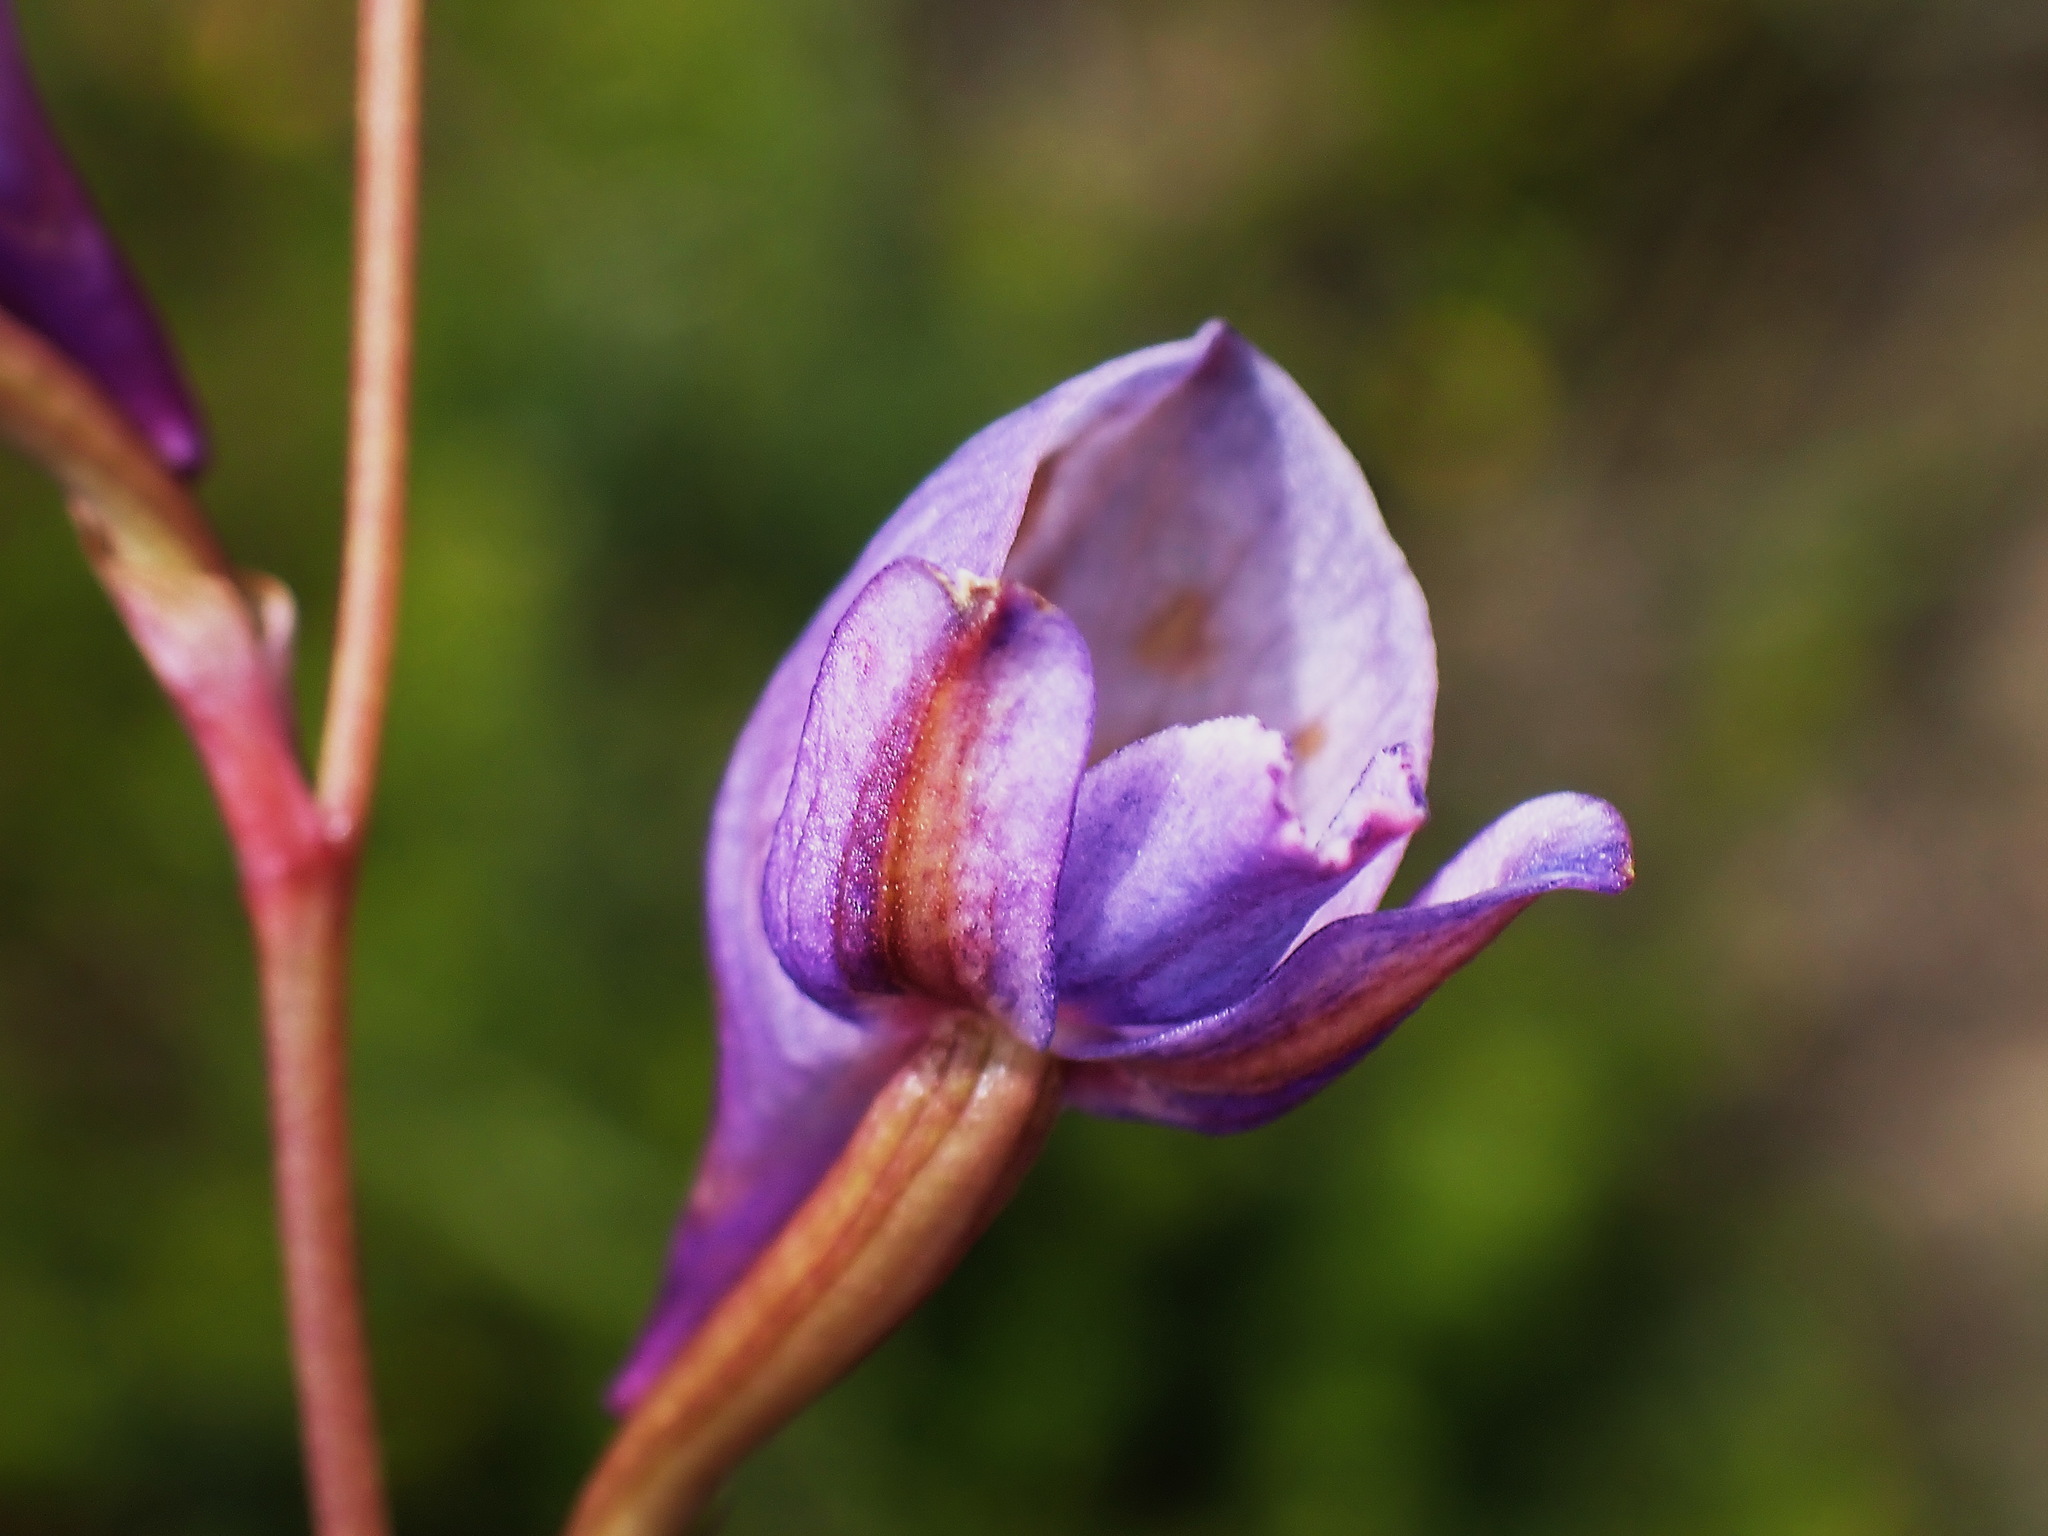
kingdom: Plantae
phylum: Tracheophyta
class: Liliopsida
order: Asparagales
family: Orchidaceae
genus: Disa
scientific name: Disa hians
